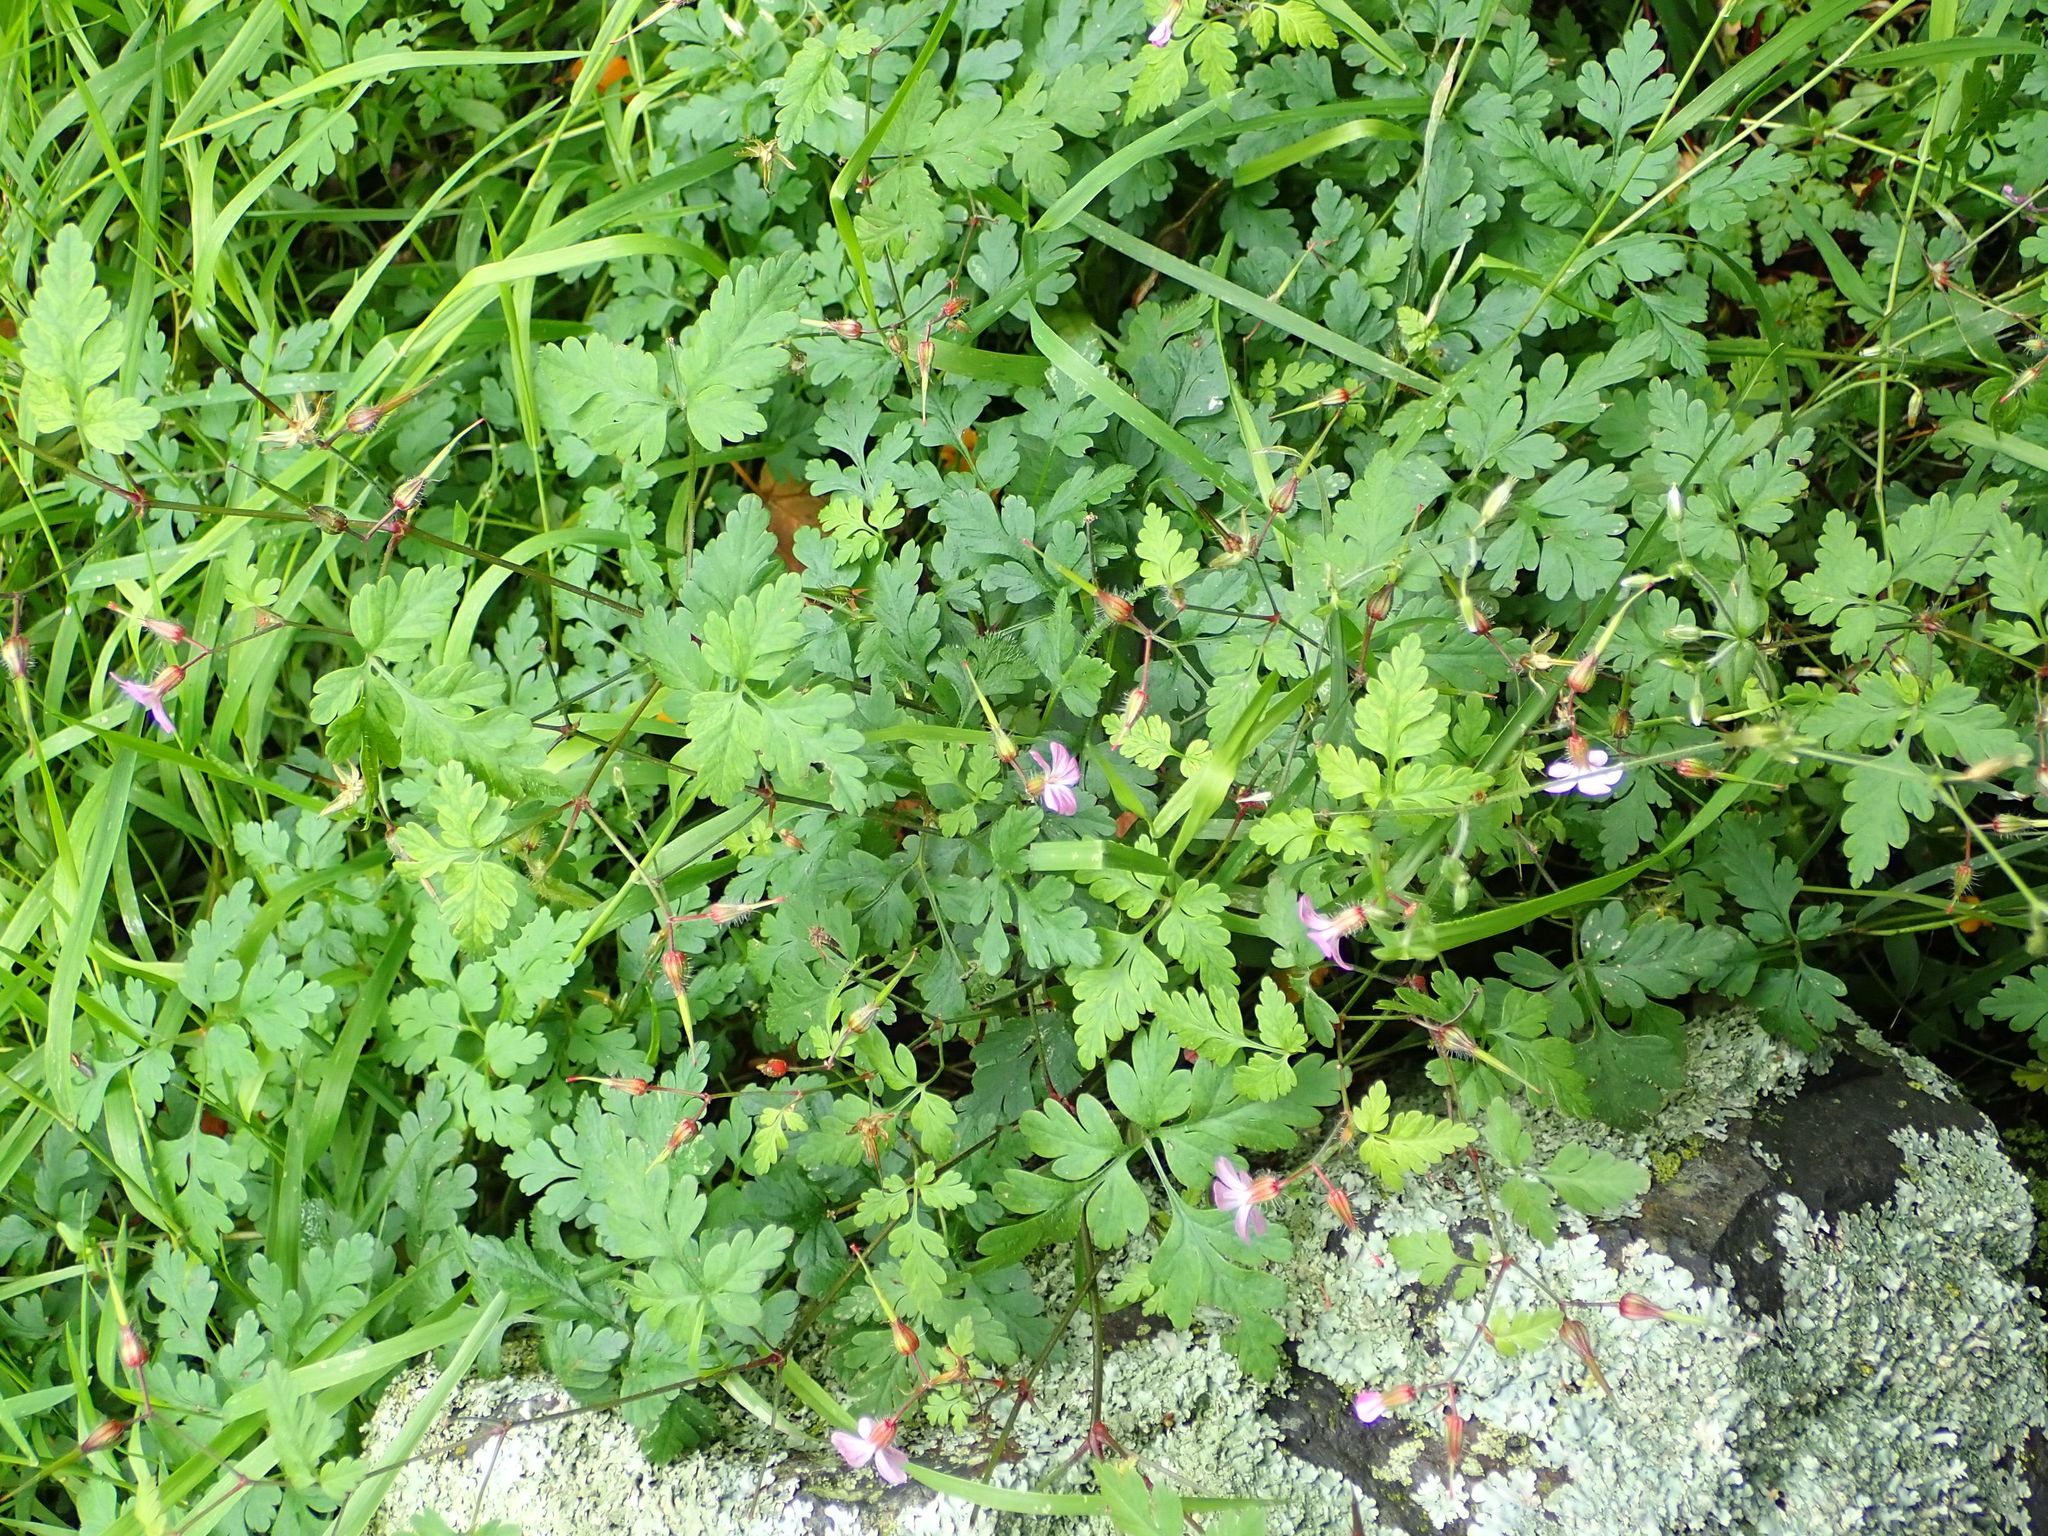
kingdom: Plantae
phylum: Tracheophyta
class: Magnoliopsida
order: Geraniales
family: Geraniaceae
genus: Geranium
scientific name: Geranium robertianum
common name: Herb-robert
